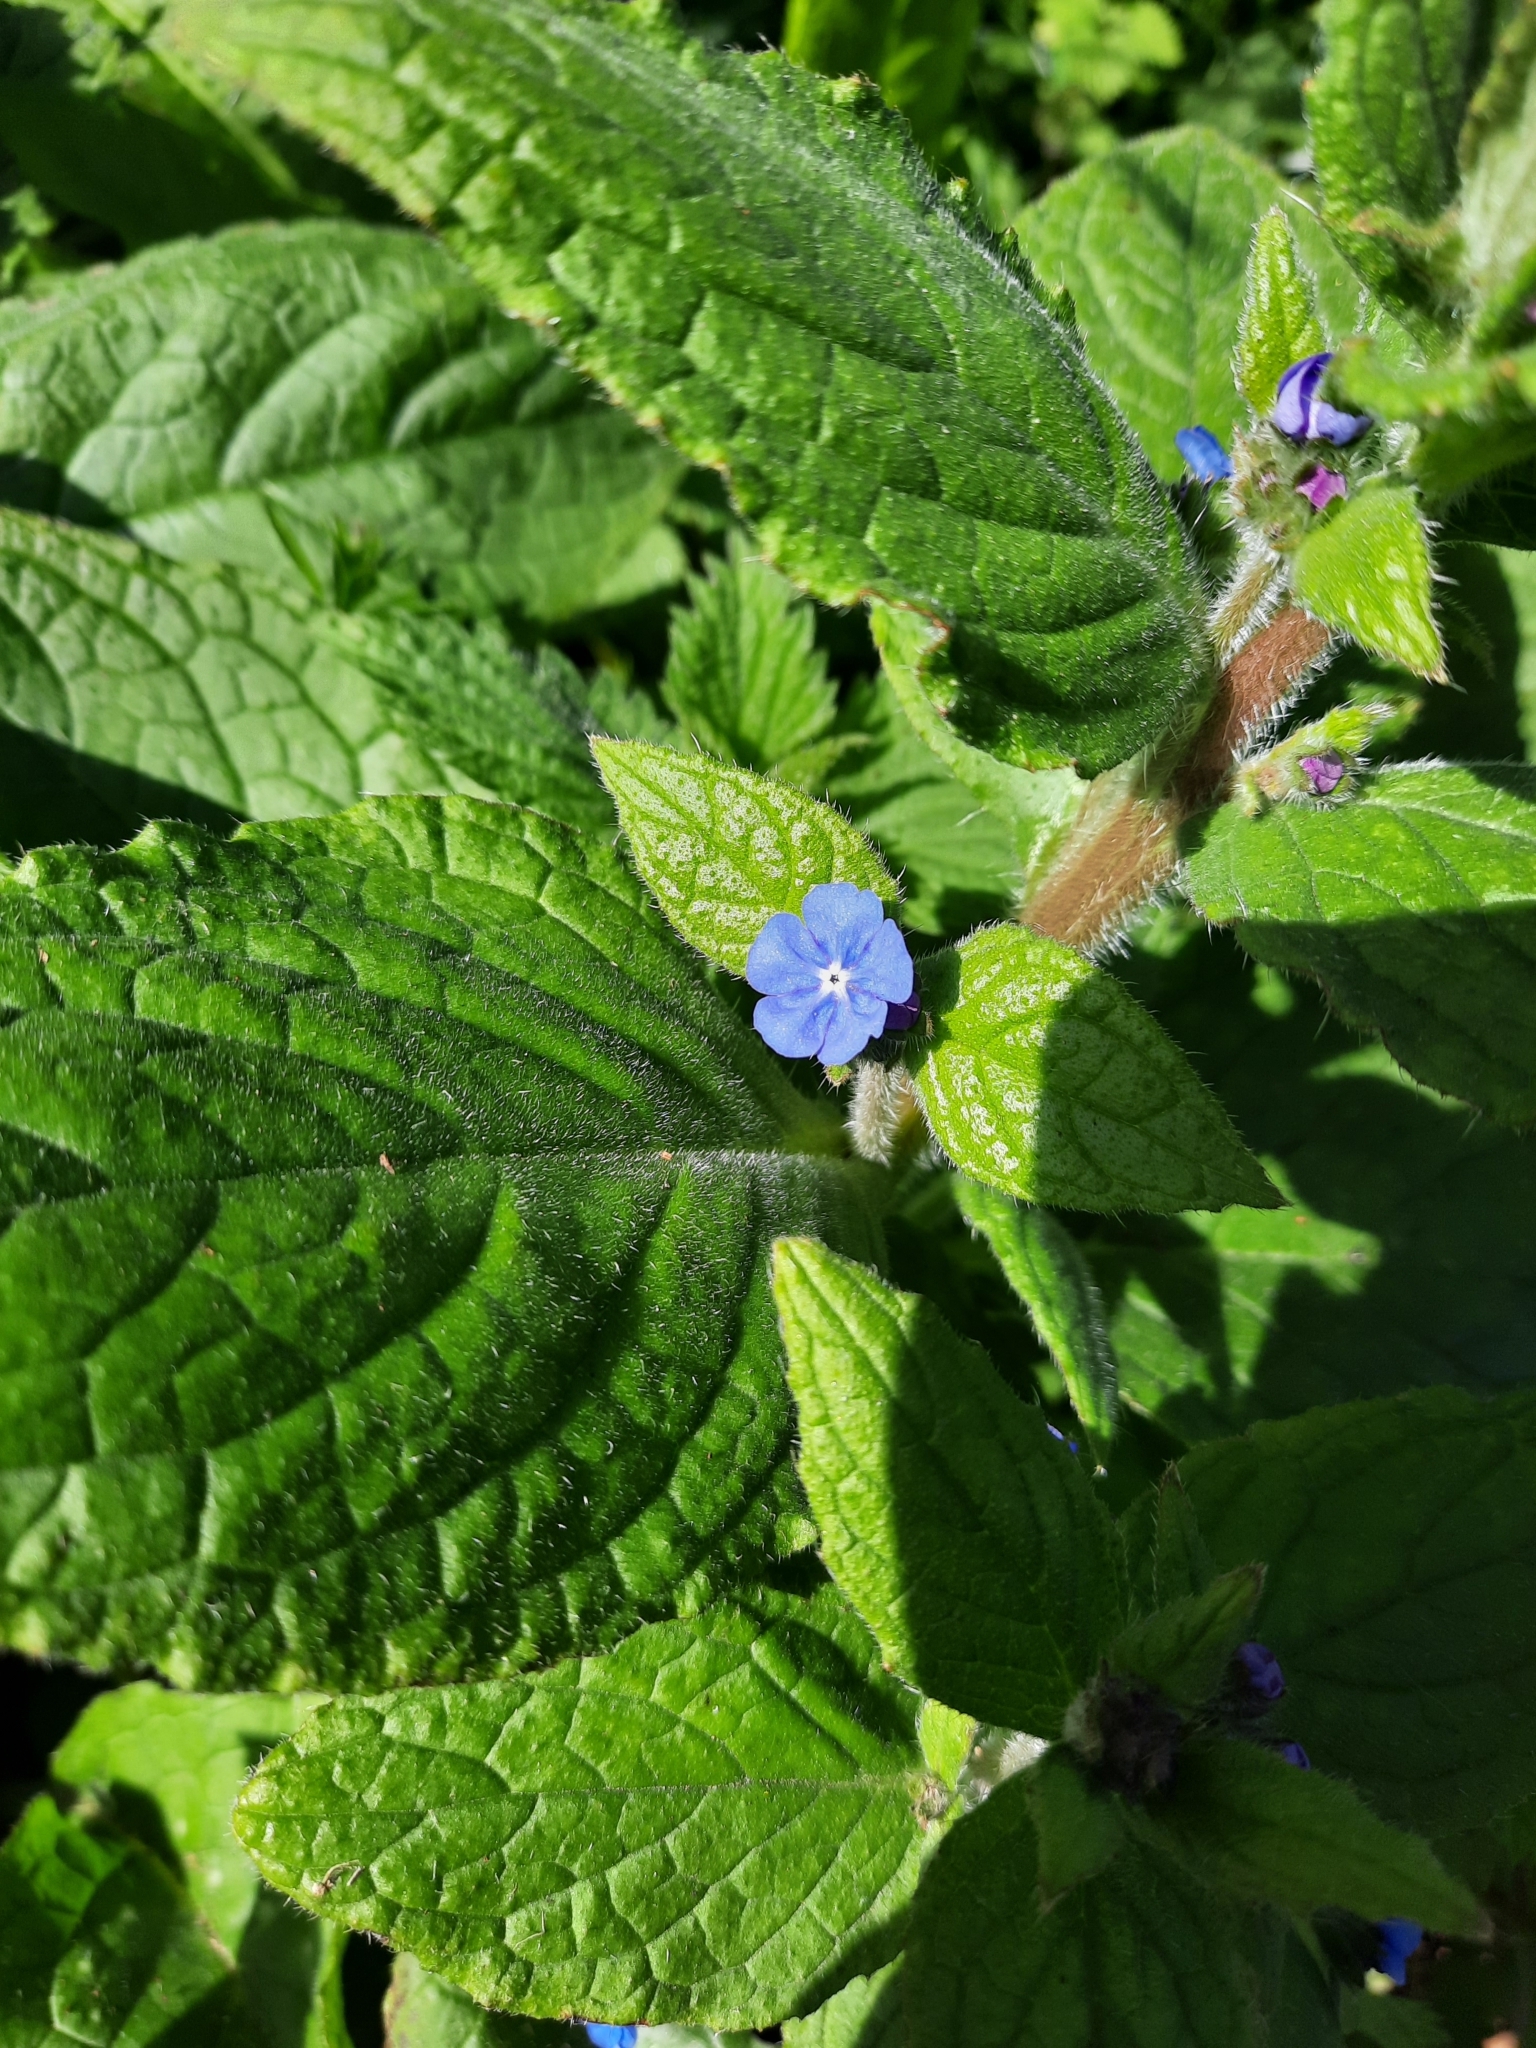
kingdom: Plantae
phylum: Tracheophyta
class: Magnoliopsida
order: Boraginales
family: Boraginaceae
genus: Pentaglottis
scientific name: Pentaglottis sempervirens
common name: Green alkanet
